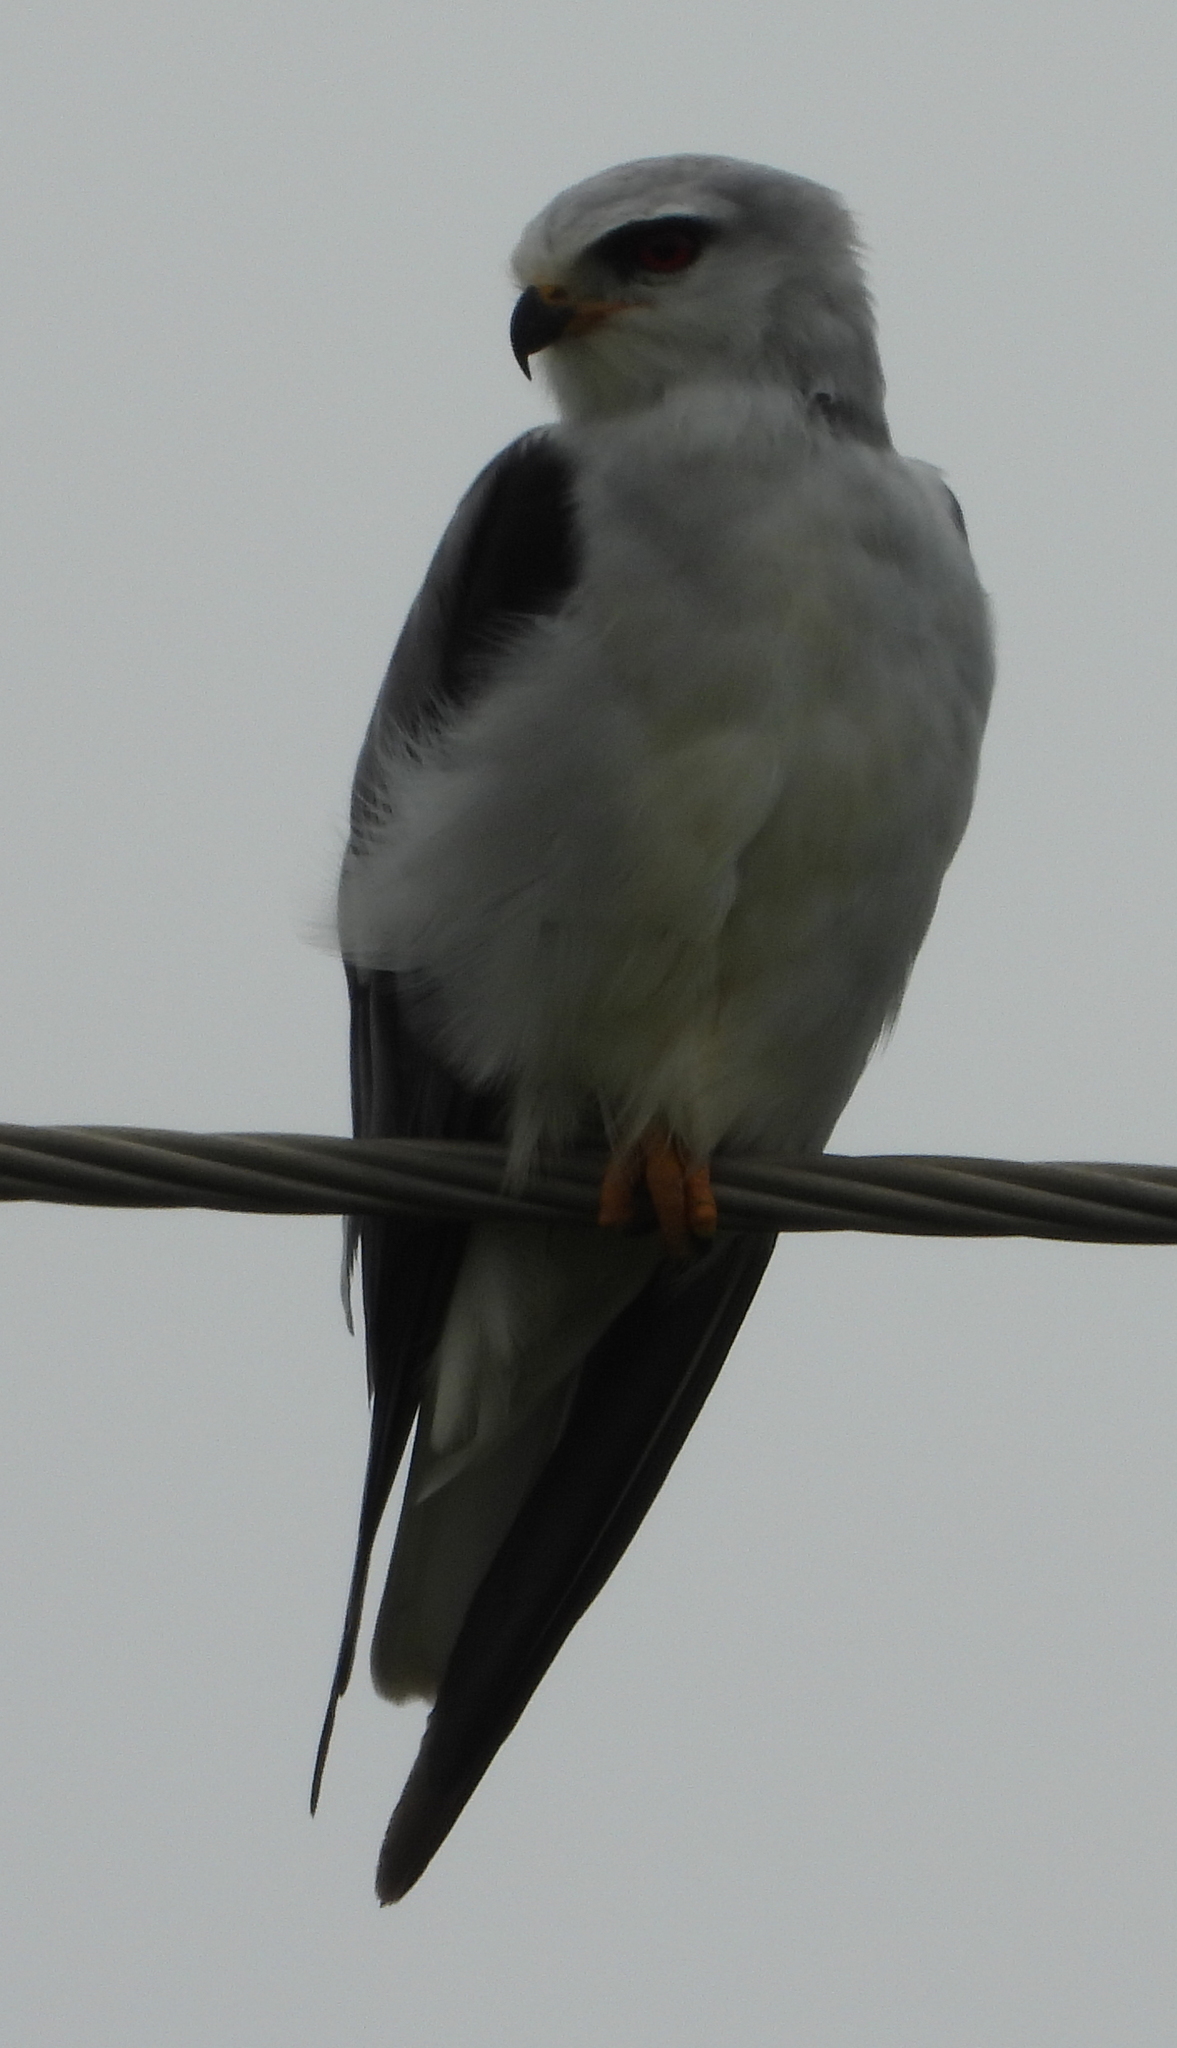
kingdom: Animalia
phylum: Chordata
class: Aves
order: Accipitriformes
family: Accipitridae
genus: Elanus
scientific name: Elanus caeruleus
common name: Black-winged kite
